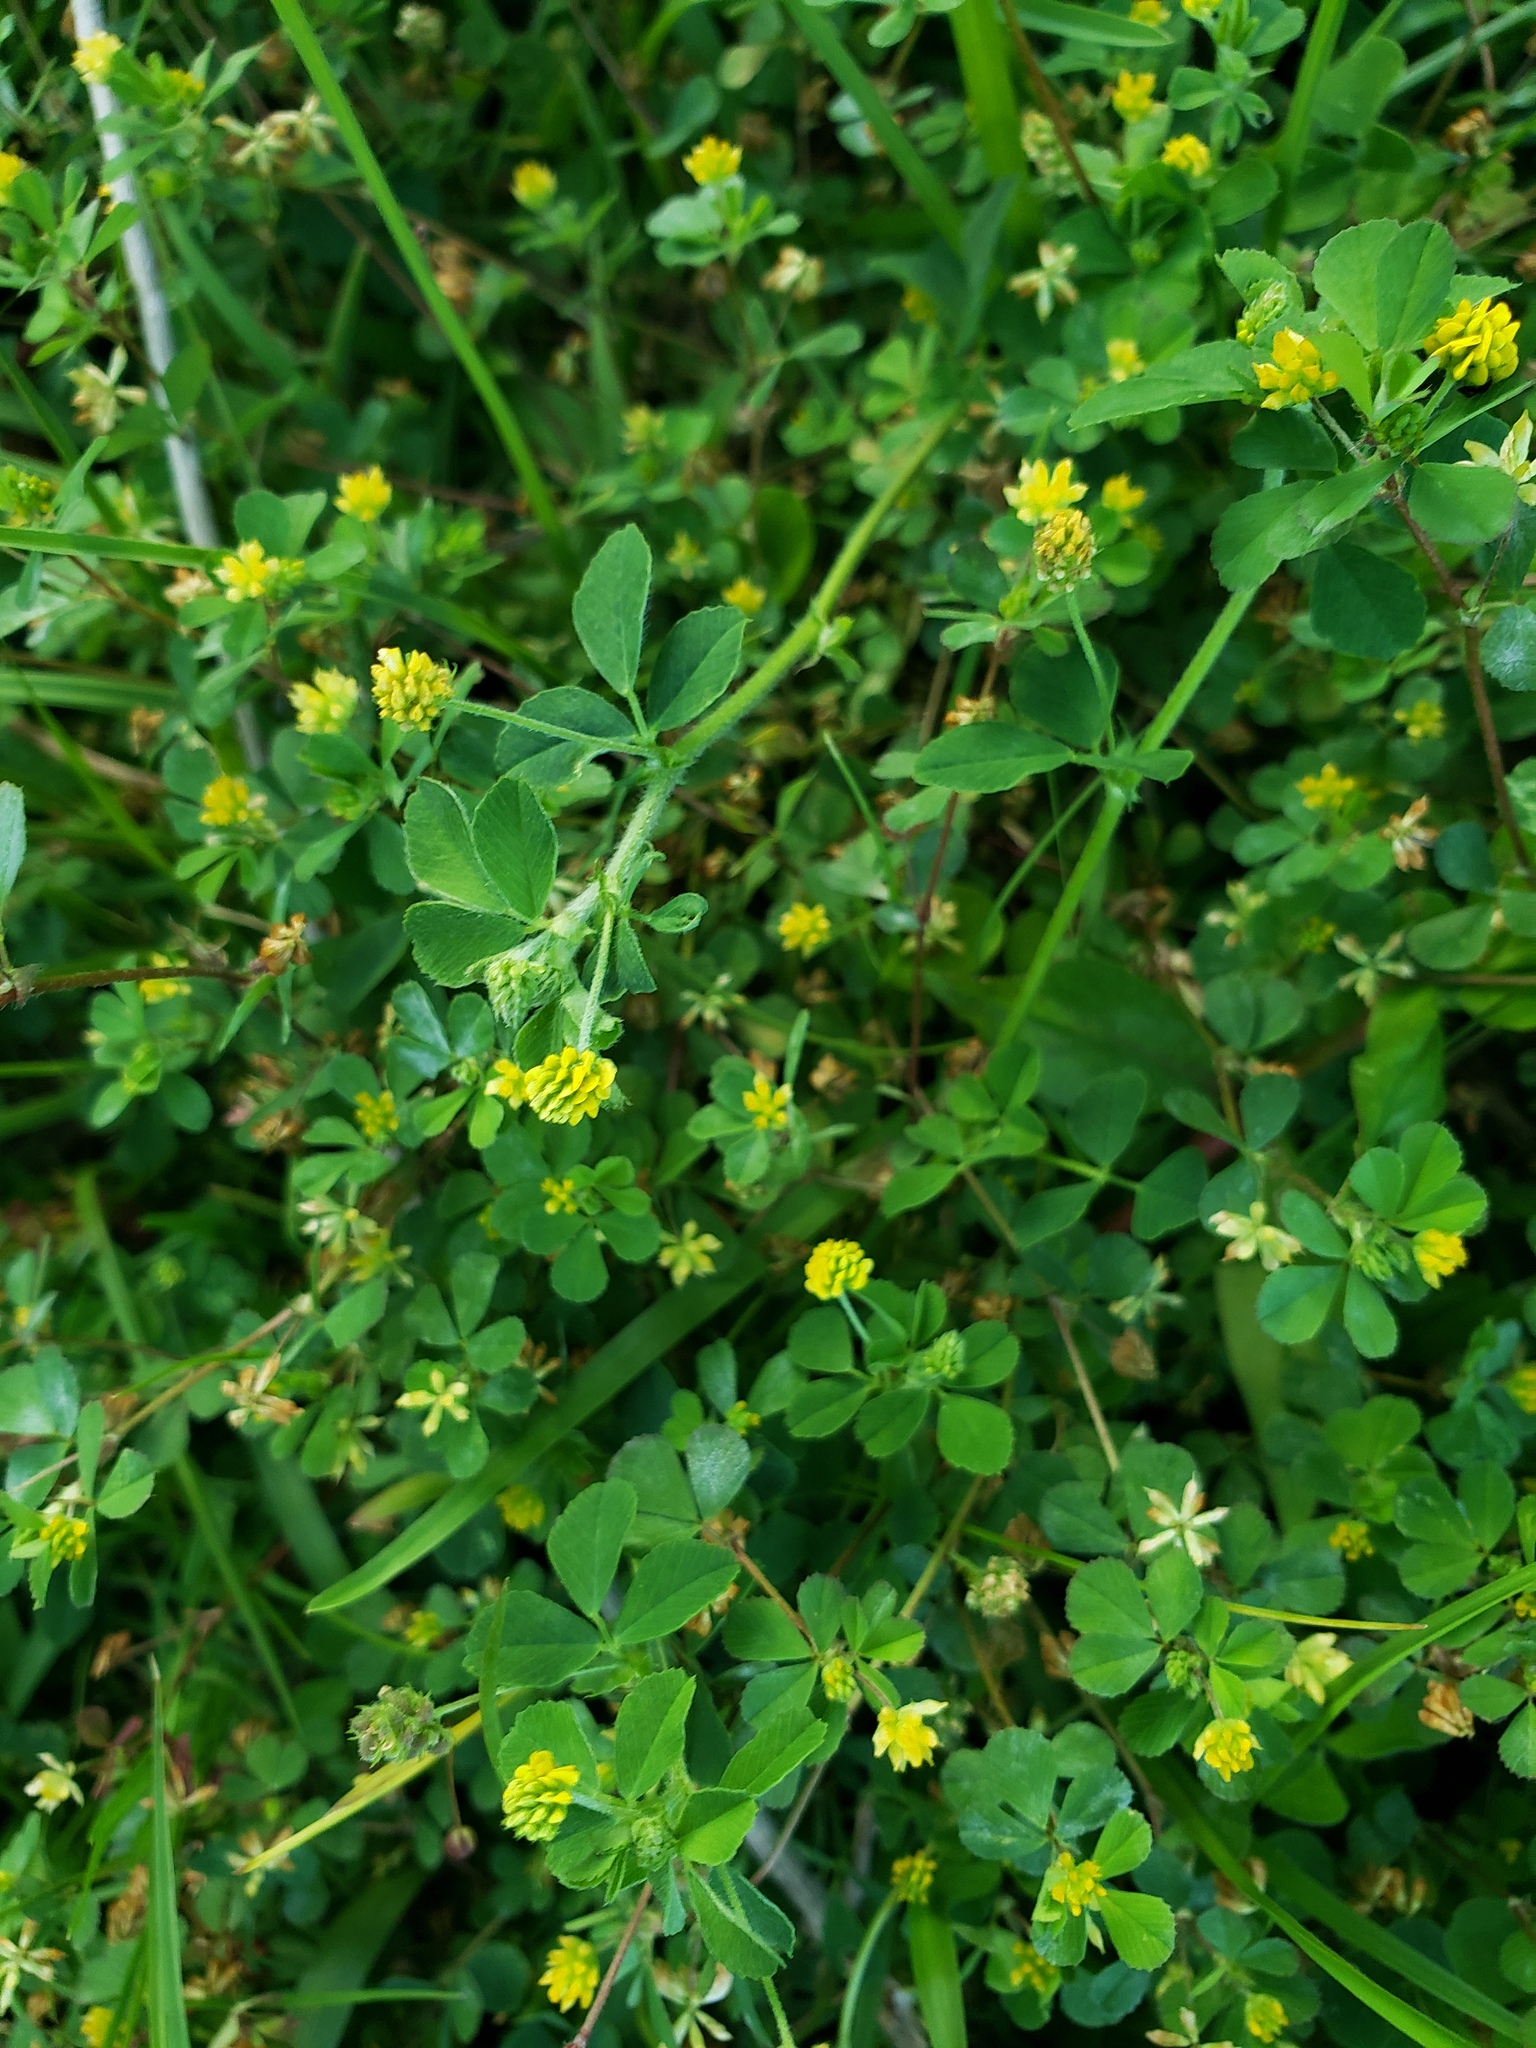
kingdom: Plantae
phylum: Tracheophyta
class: Magnoliopsida
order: Fabales
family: Fabaceae
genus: Medicago
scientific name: Medicago lupulina
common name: Black medick
